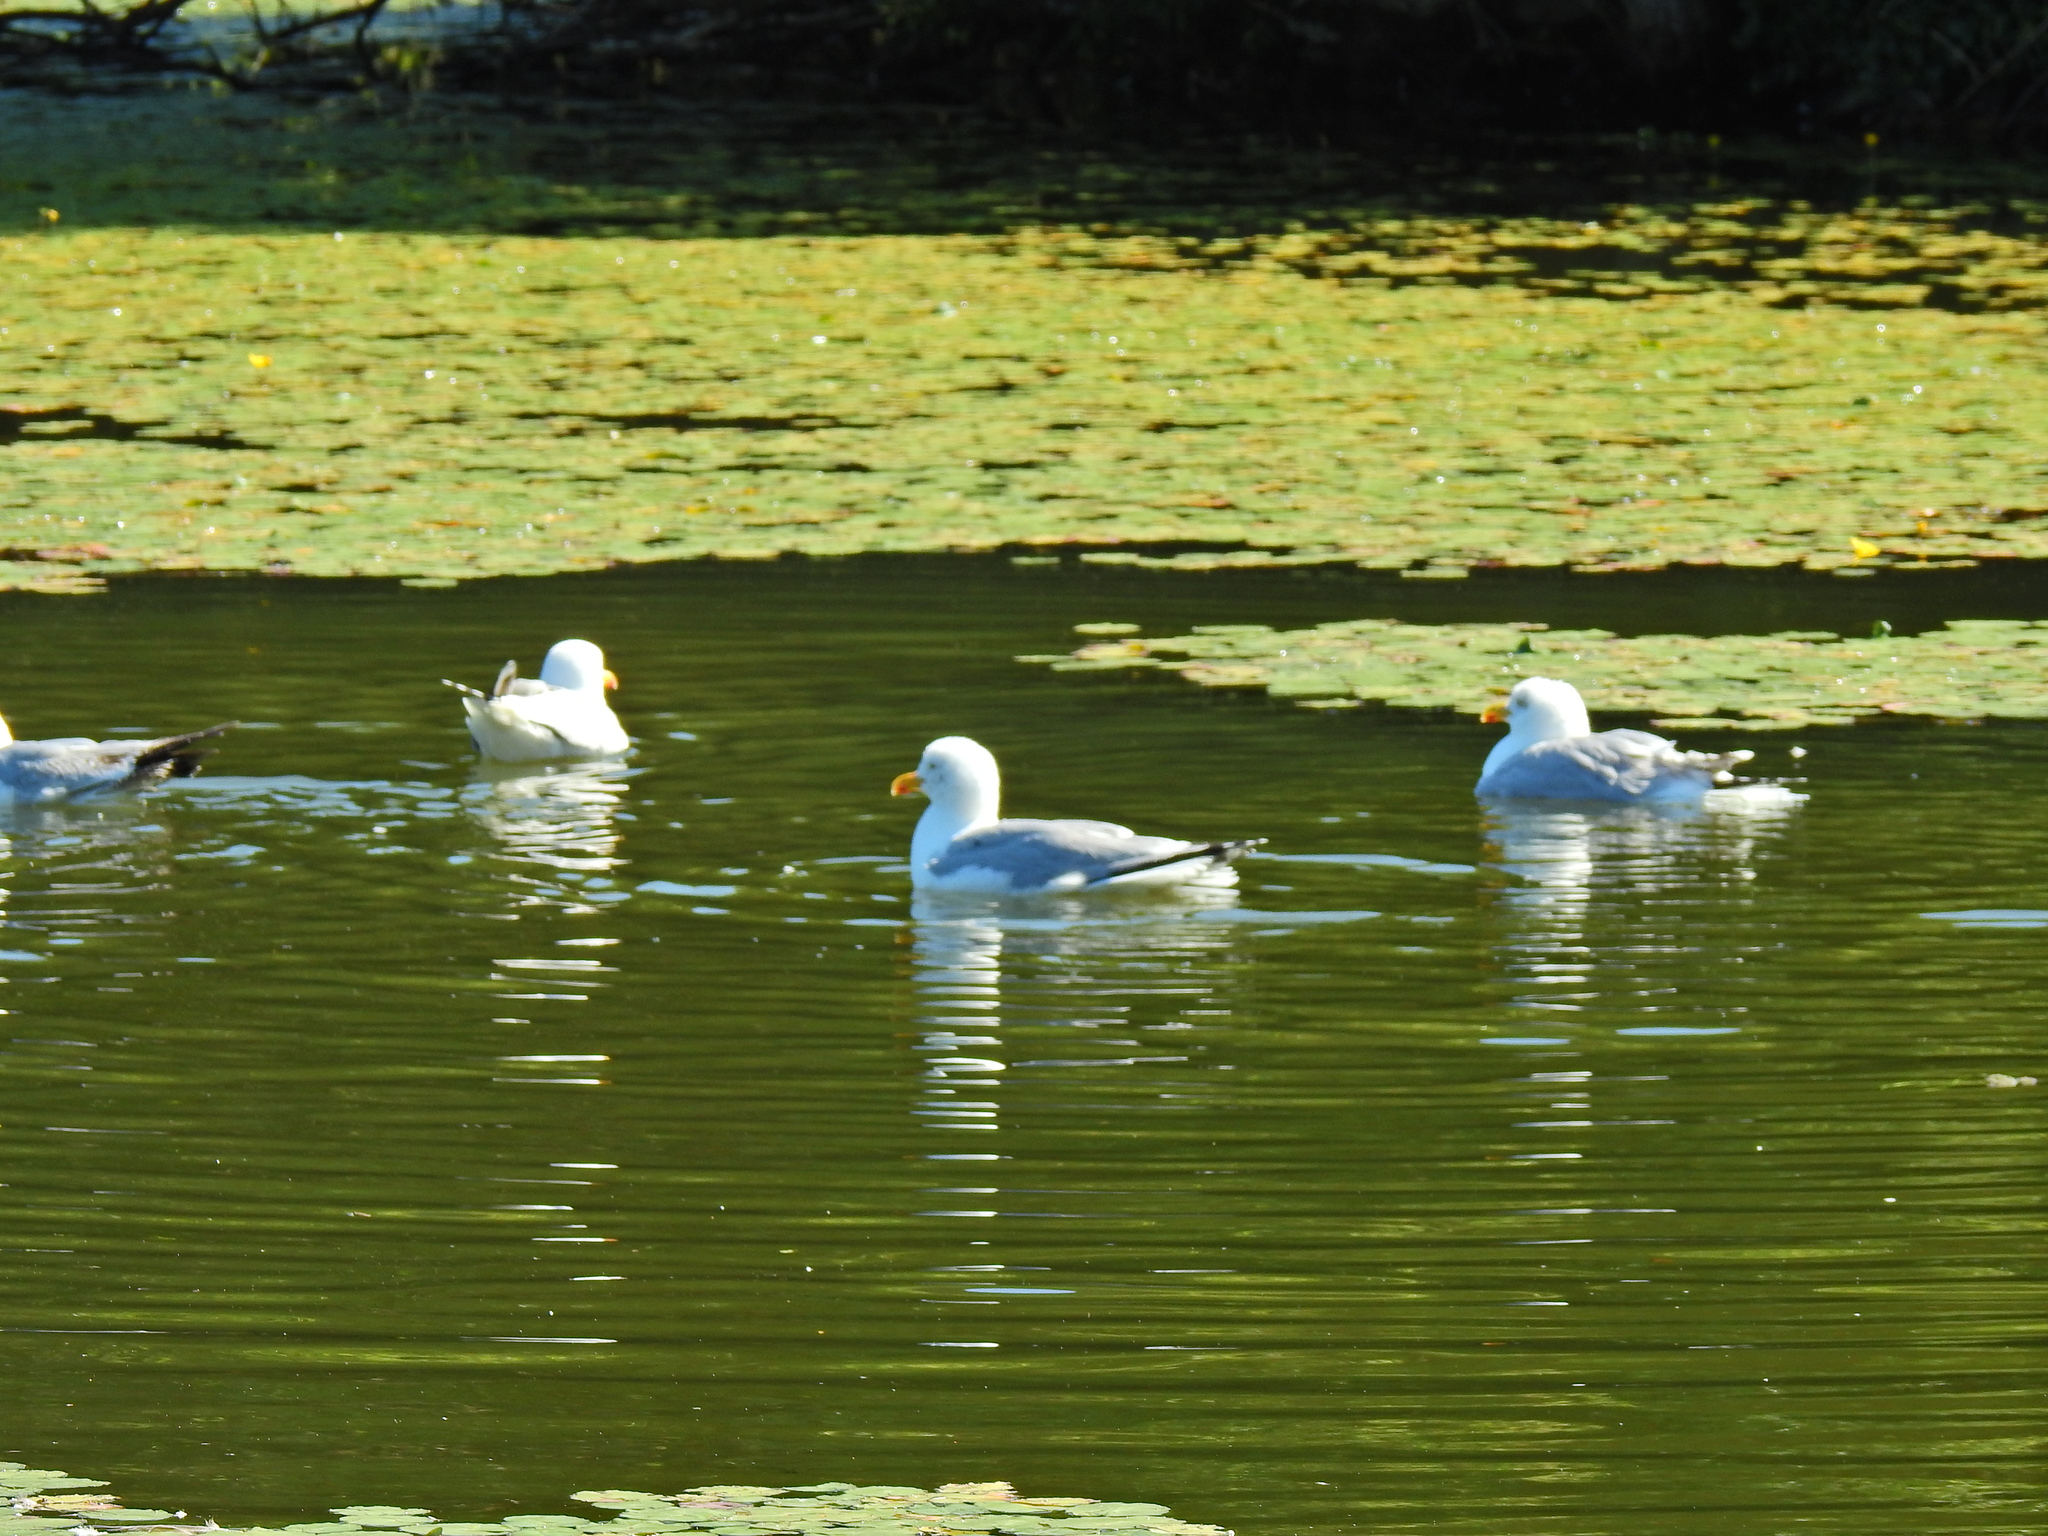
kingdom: Animalia
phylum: Chordata
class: Aves
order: Charadriiformes
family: Laridae
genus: Larus
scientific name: Larus argentatus
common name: Herring gull
